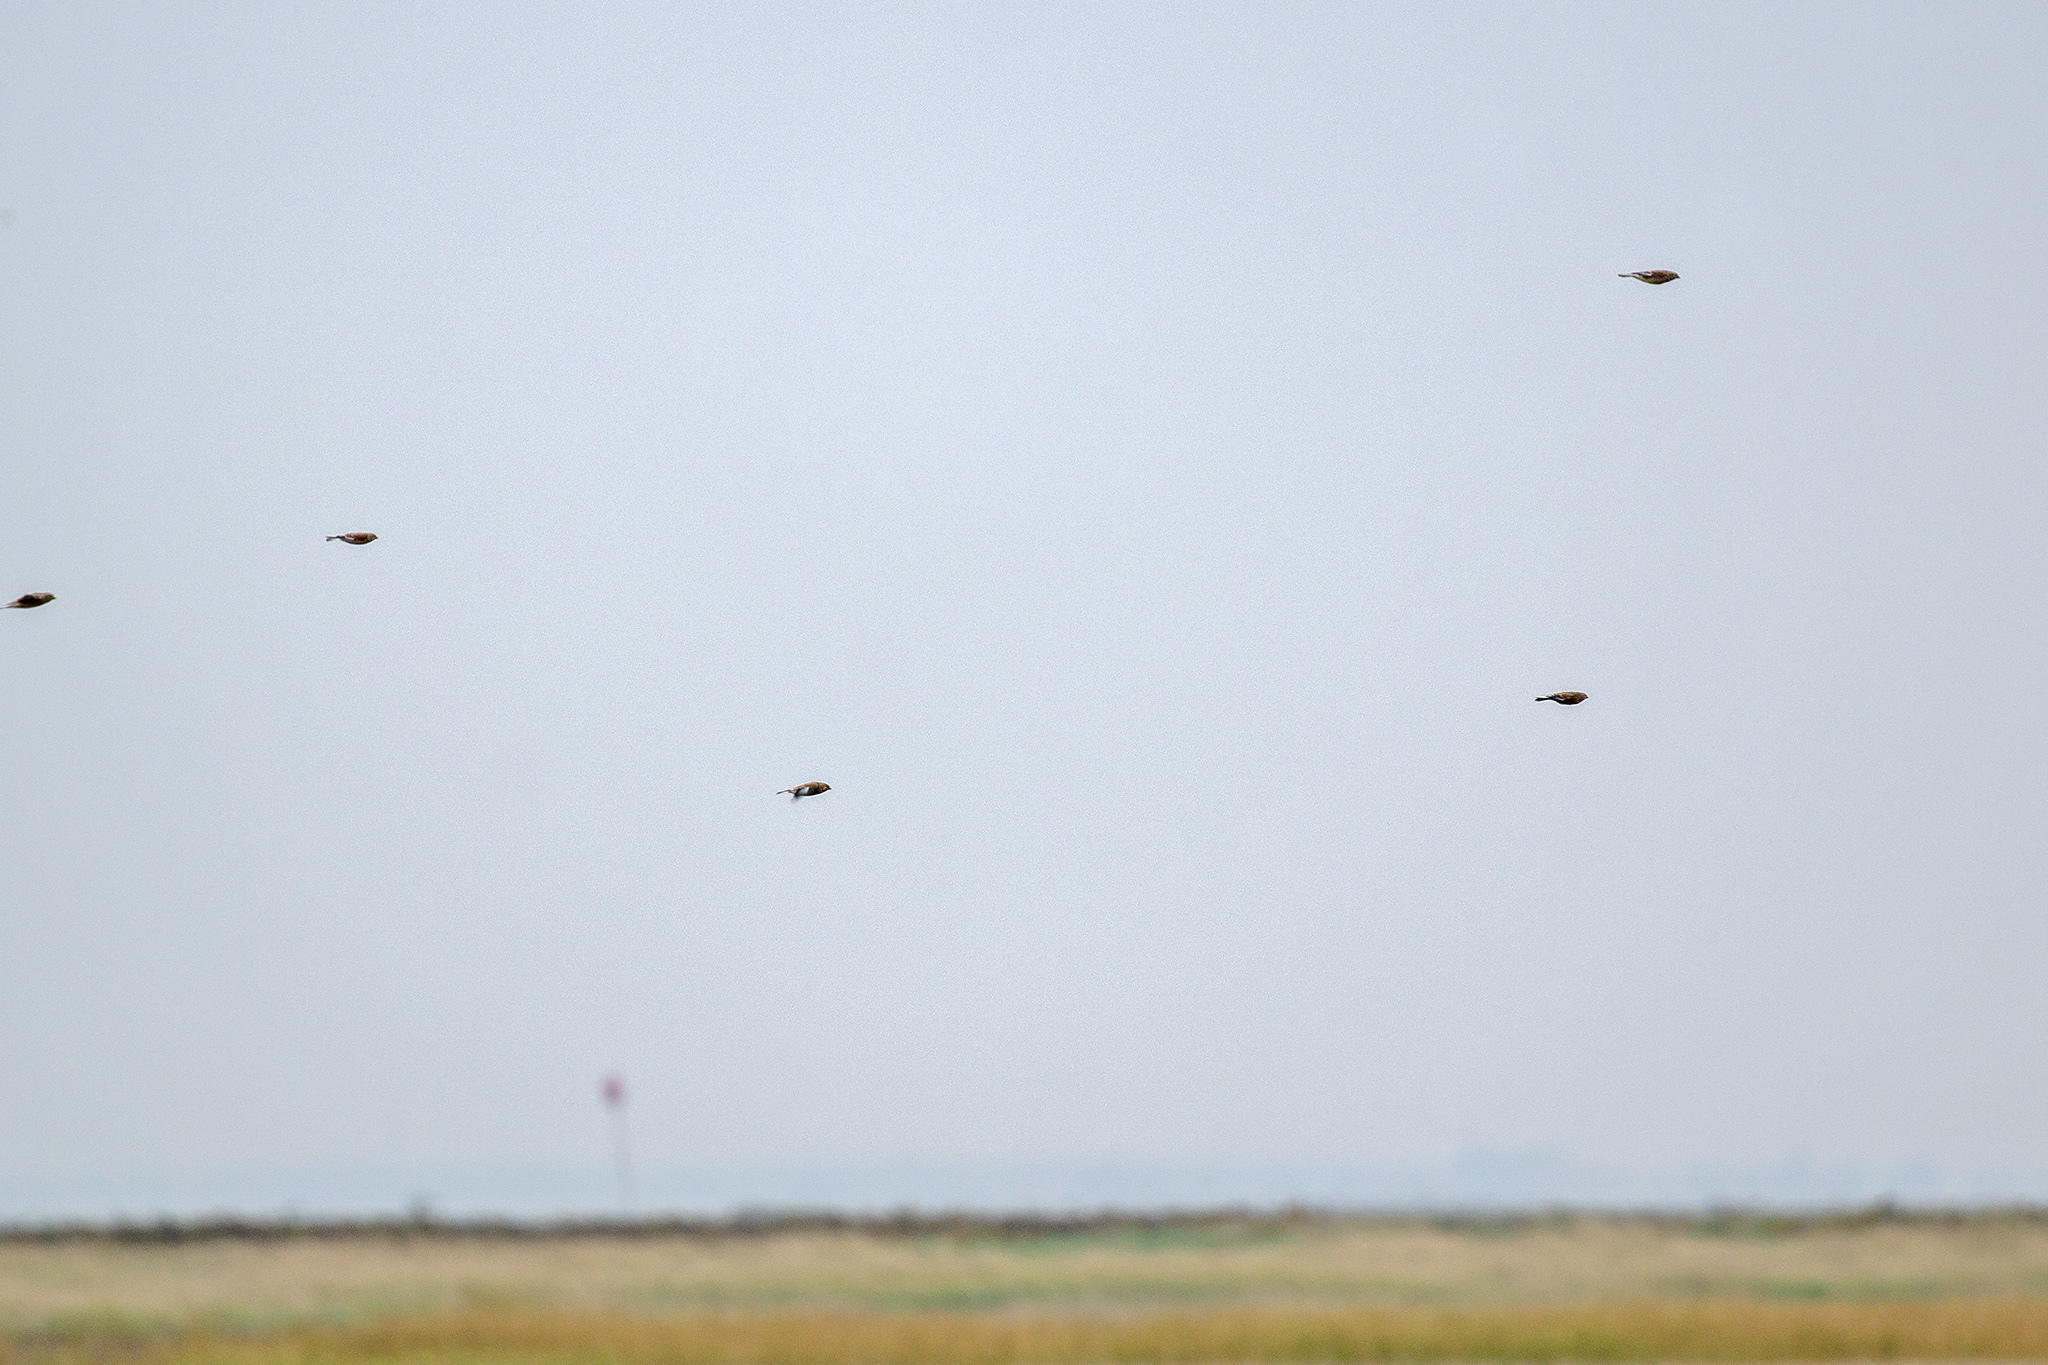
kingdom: Animalia
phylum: Chordata
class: Aves
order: Passeriformes
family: Fringillidae
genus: Linaria
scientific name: Linaria cannabina
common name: Common linnet
